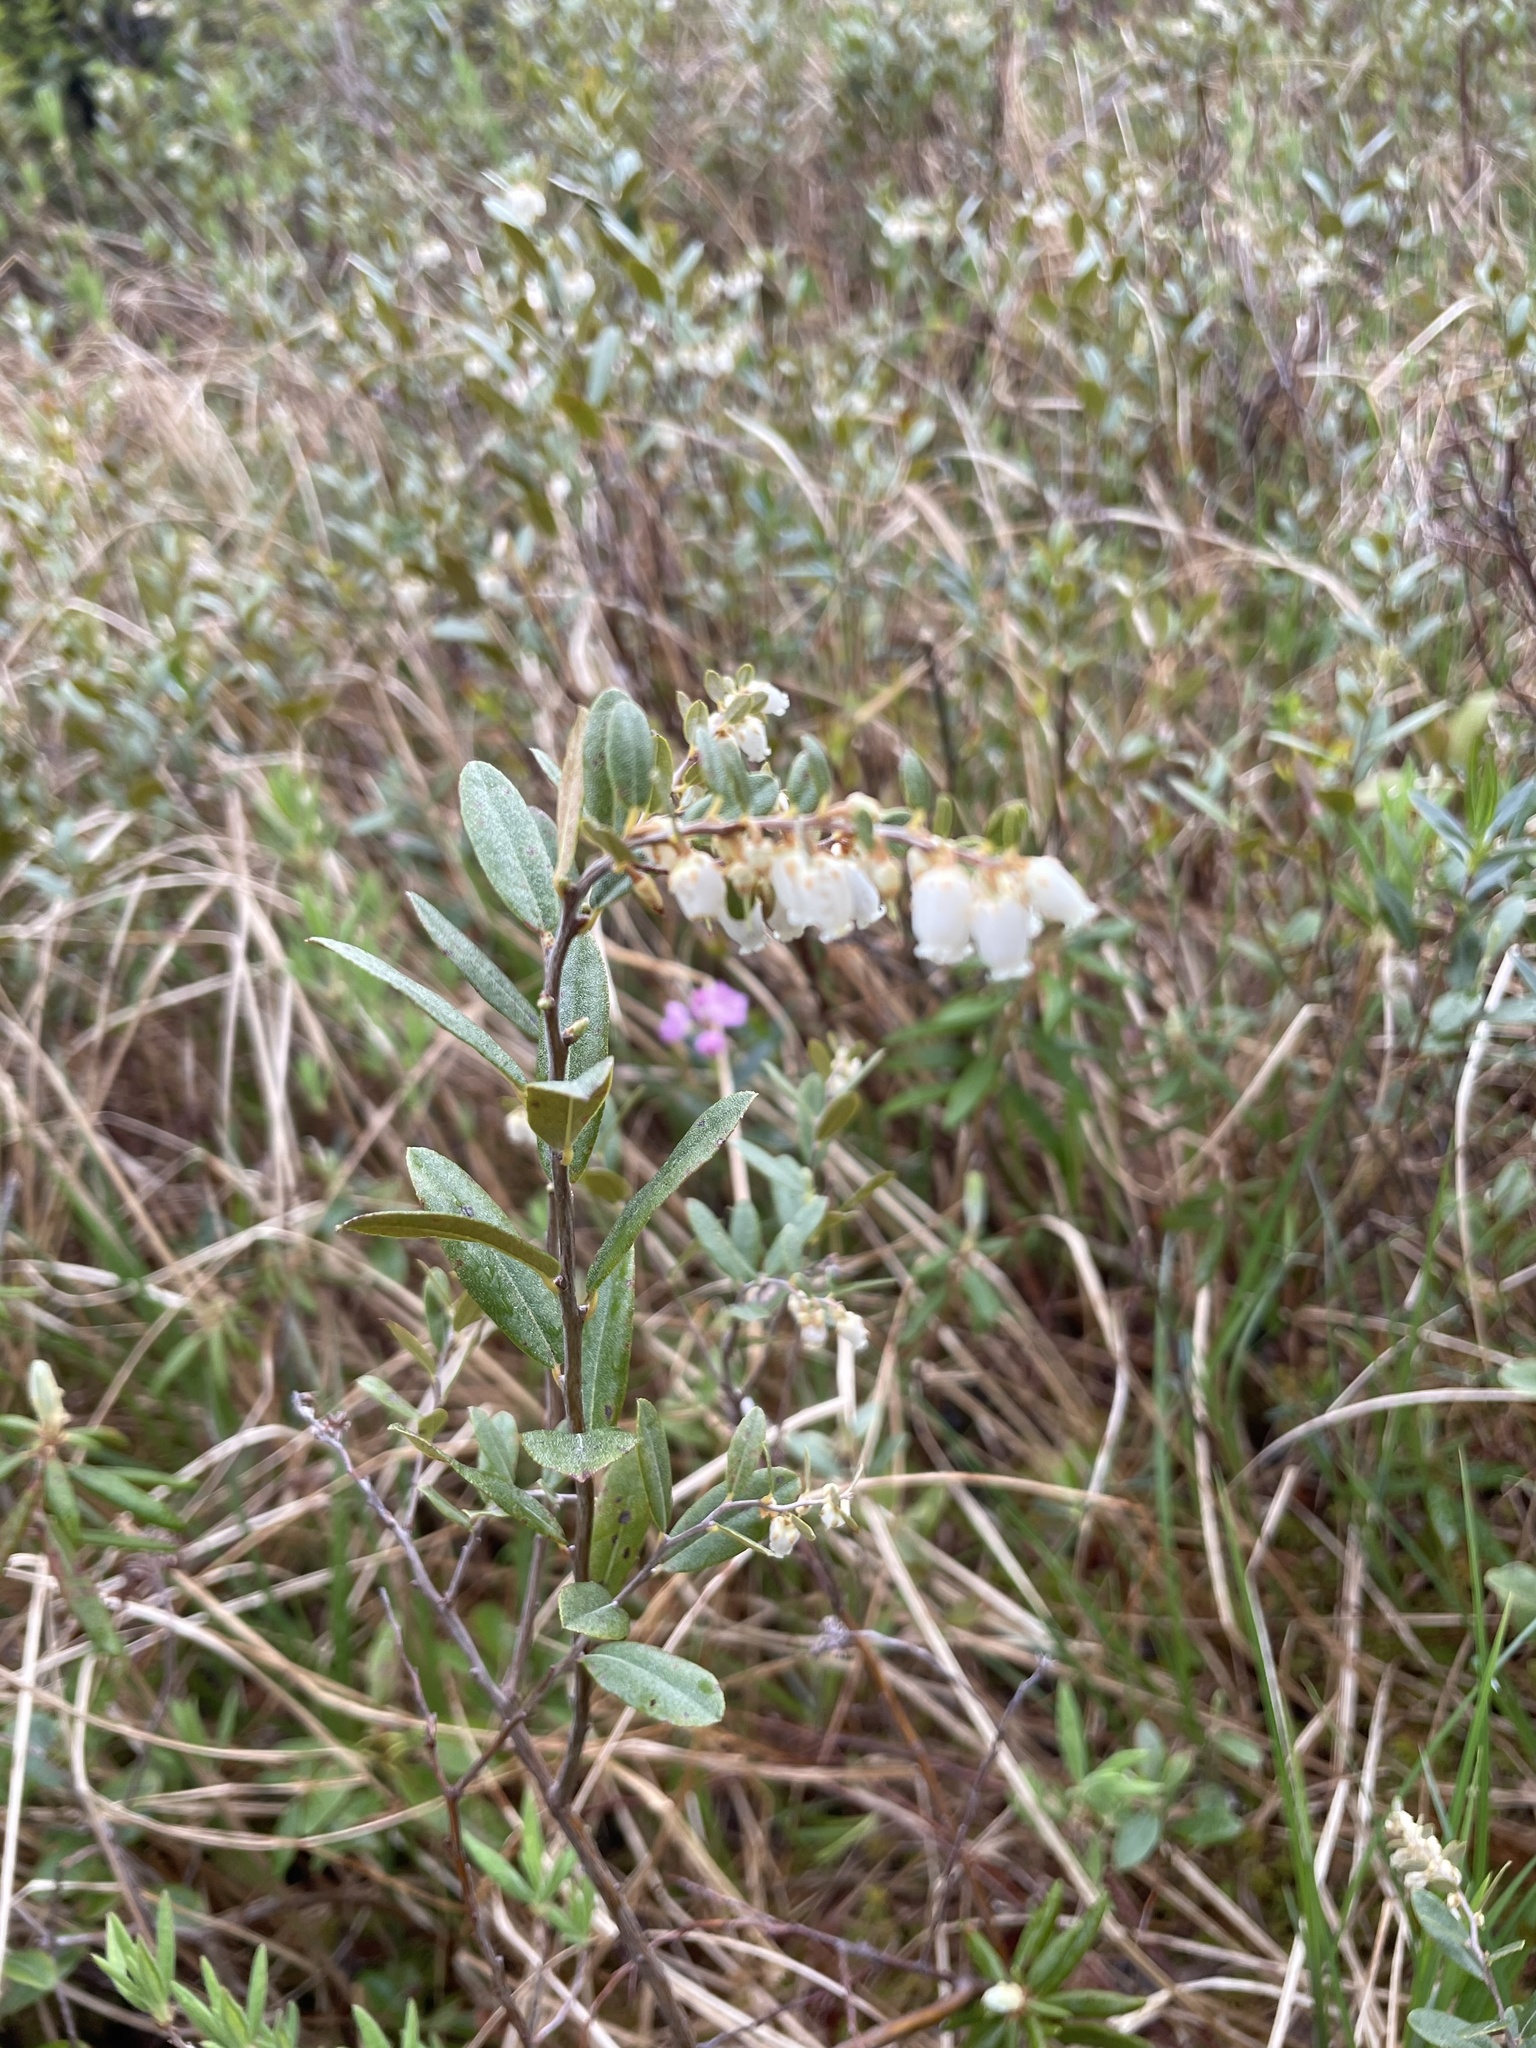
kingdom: Plantae
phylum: Tracheophyta
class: Magnoliopsida
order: Ericales
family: Ericaceae
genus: Chamaedaphne
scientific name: Chamaedaphne calyculata
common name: Leatherleaf
